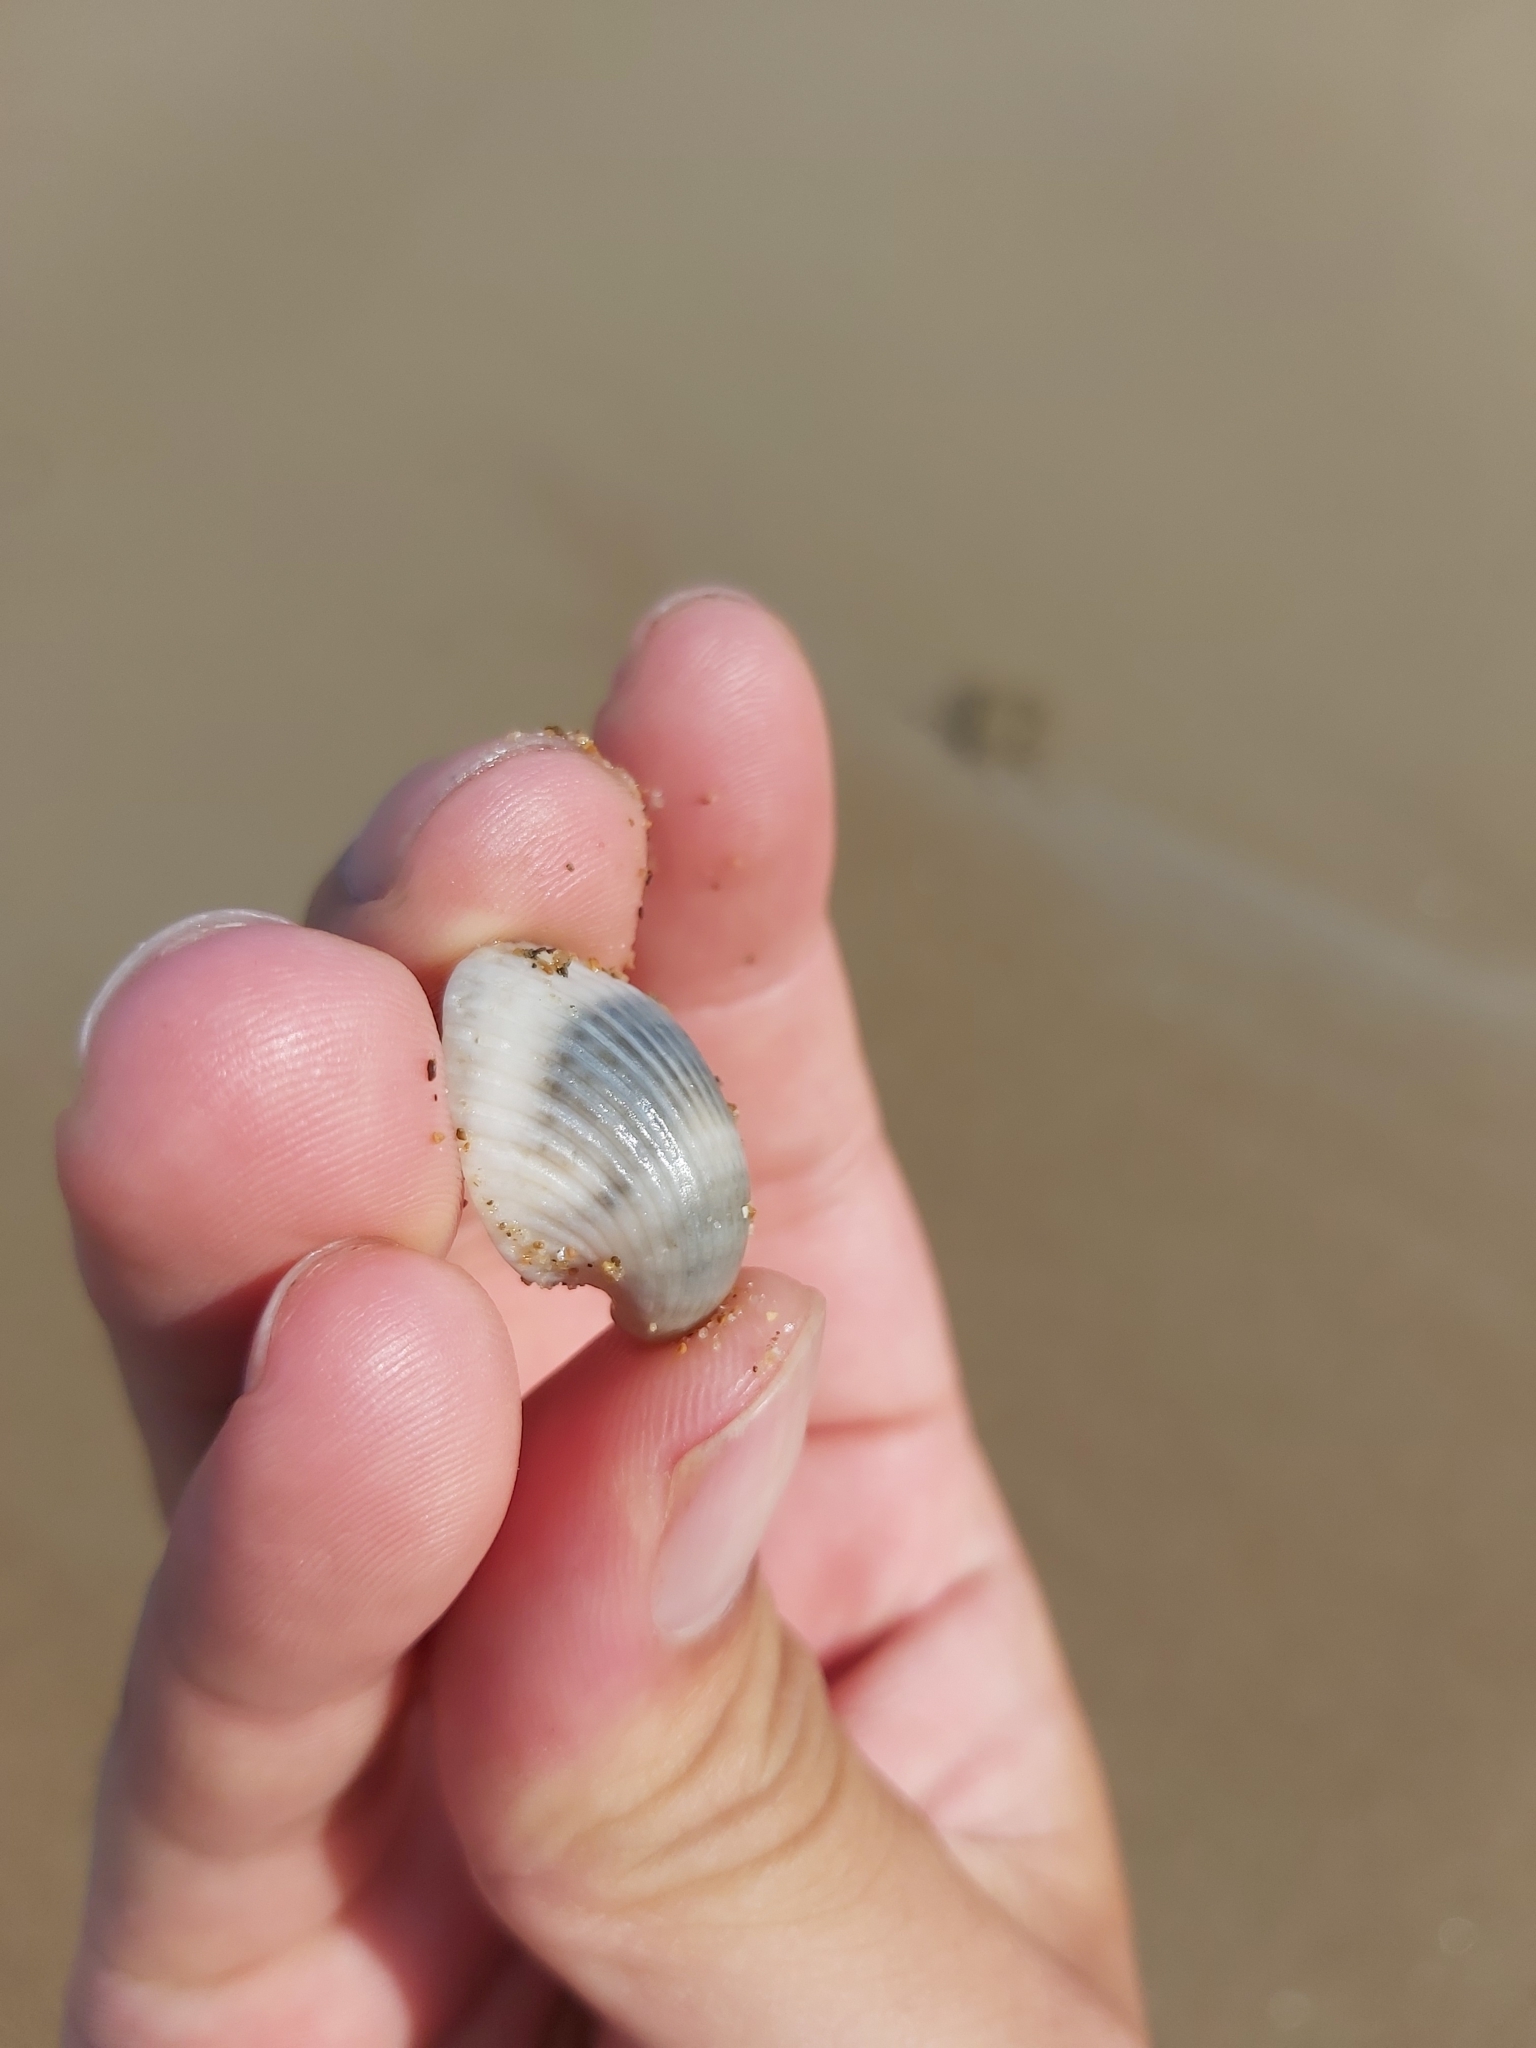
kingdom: Animalia
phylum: Mollusca
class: Bivalvia
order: Arcida
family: Arcidae
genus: Anadara
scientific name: Anadara pilula
